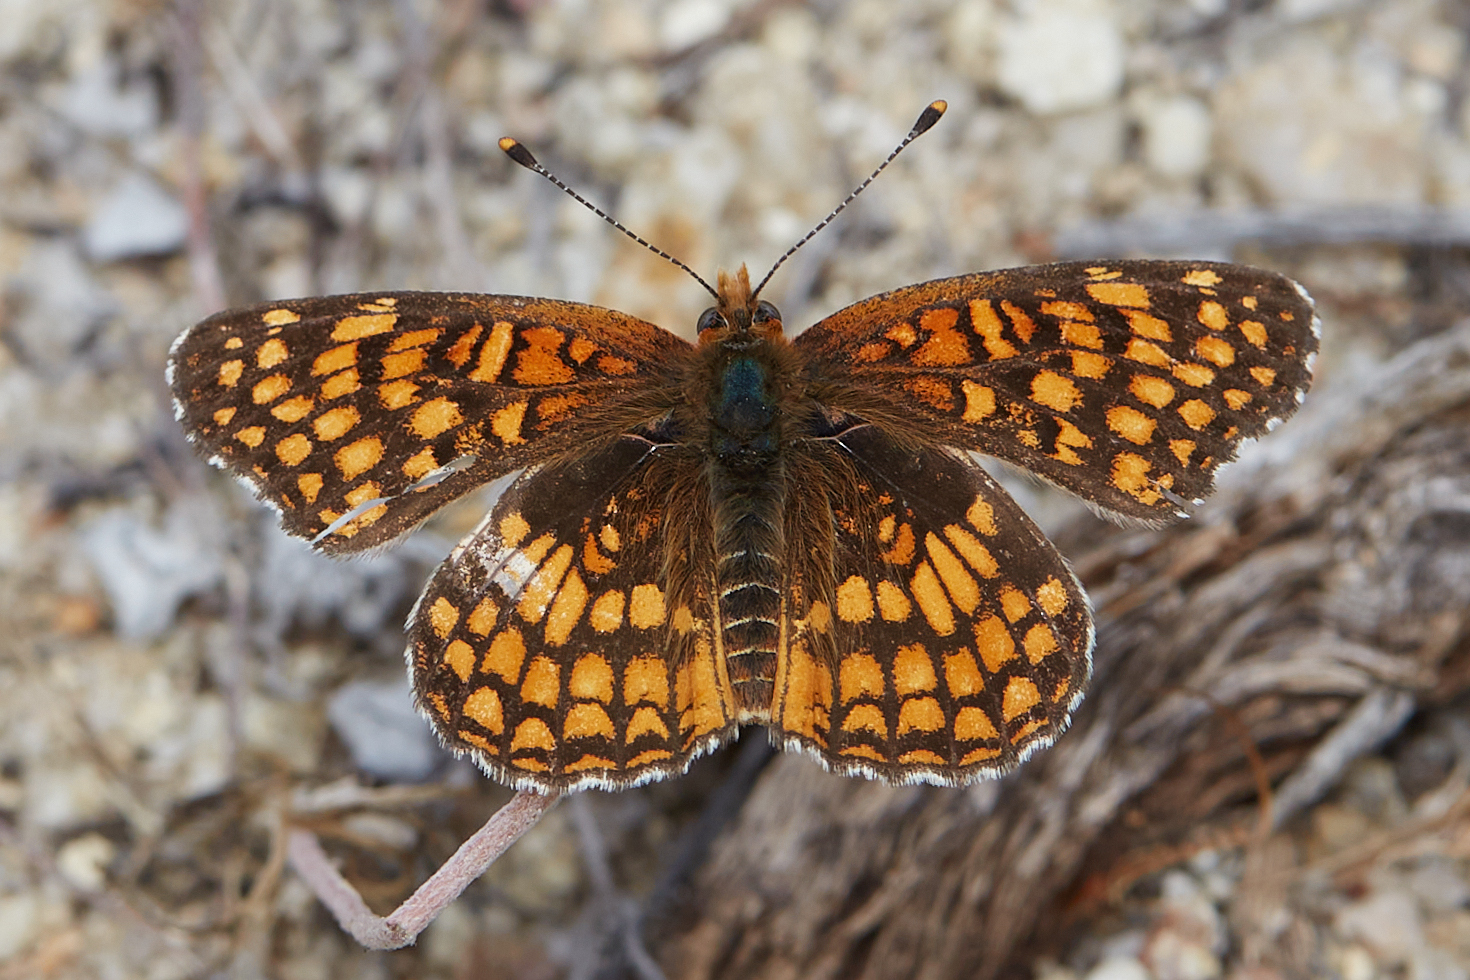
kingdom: Animalia
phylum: Arthropoda
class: Insecta
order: Lepidoptera
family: Nymphalidae
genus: Chlosyne
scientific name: Chlosyne gabbii
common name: Gabb's checkerspot
